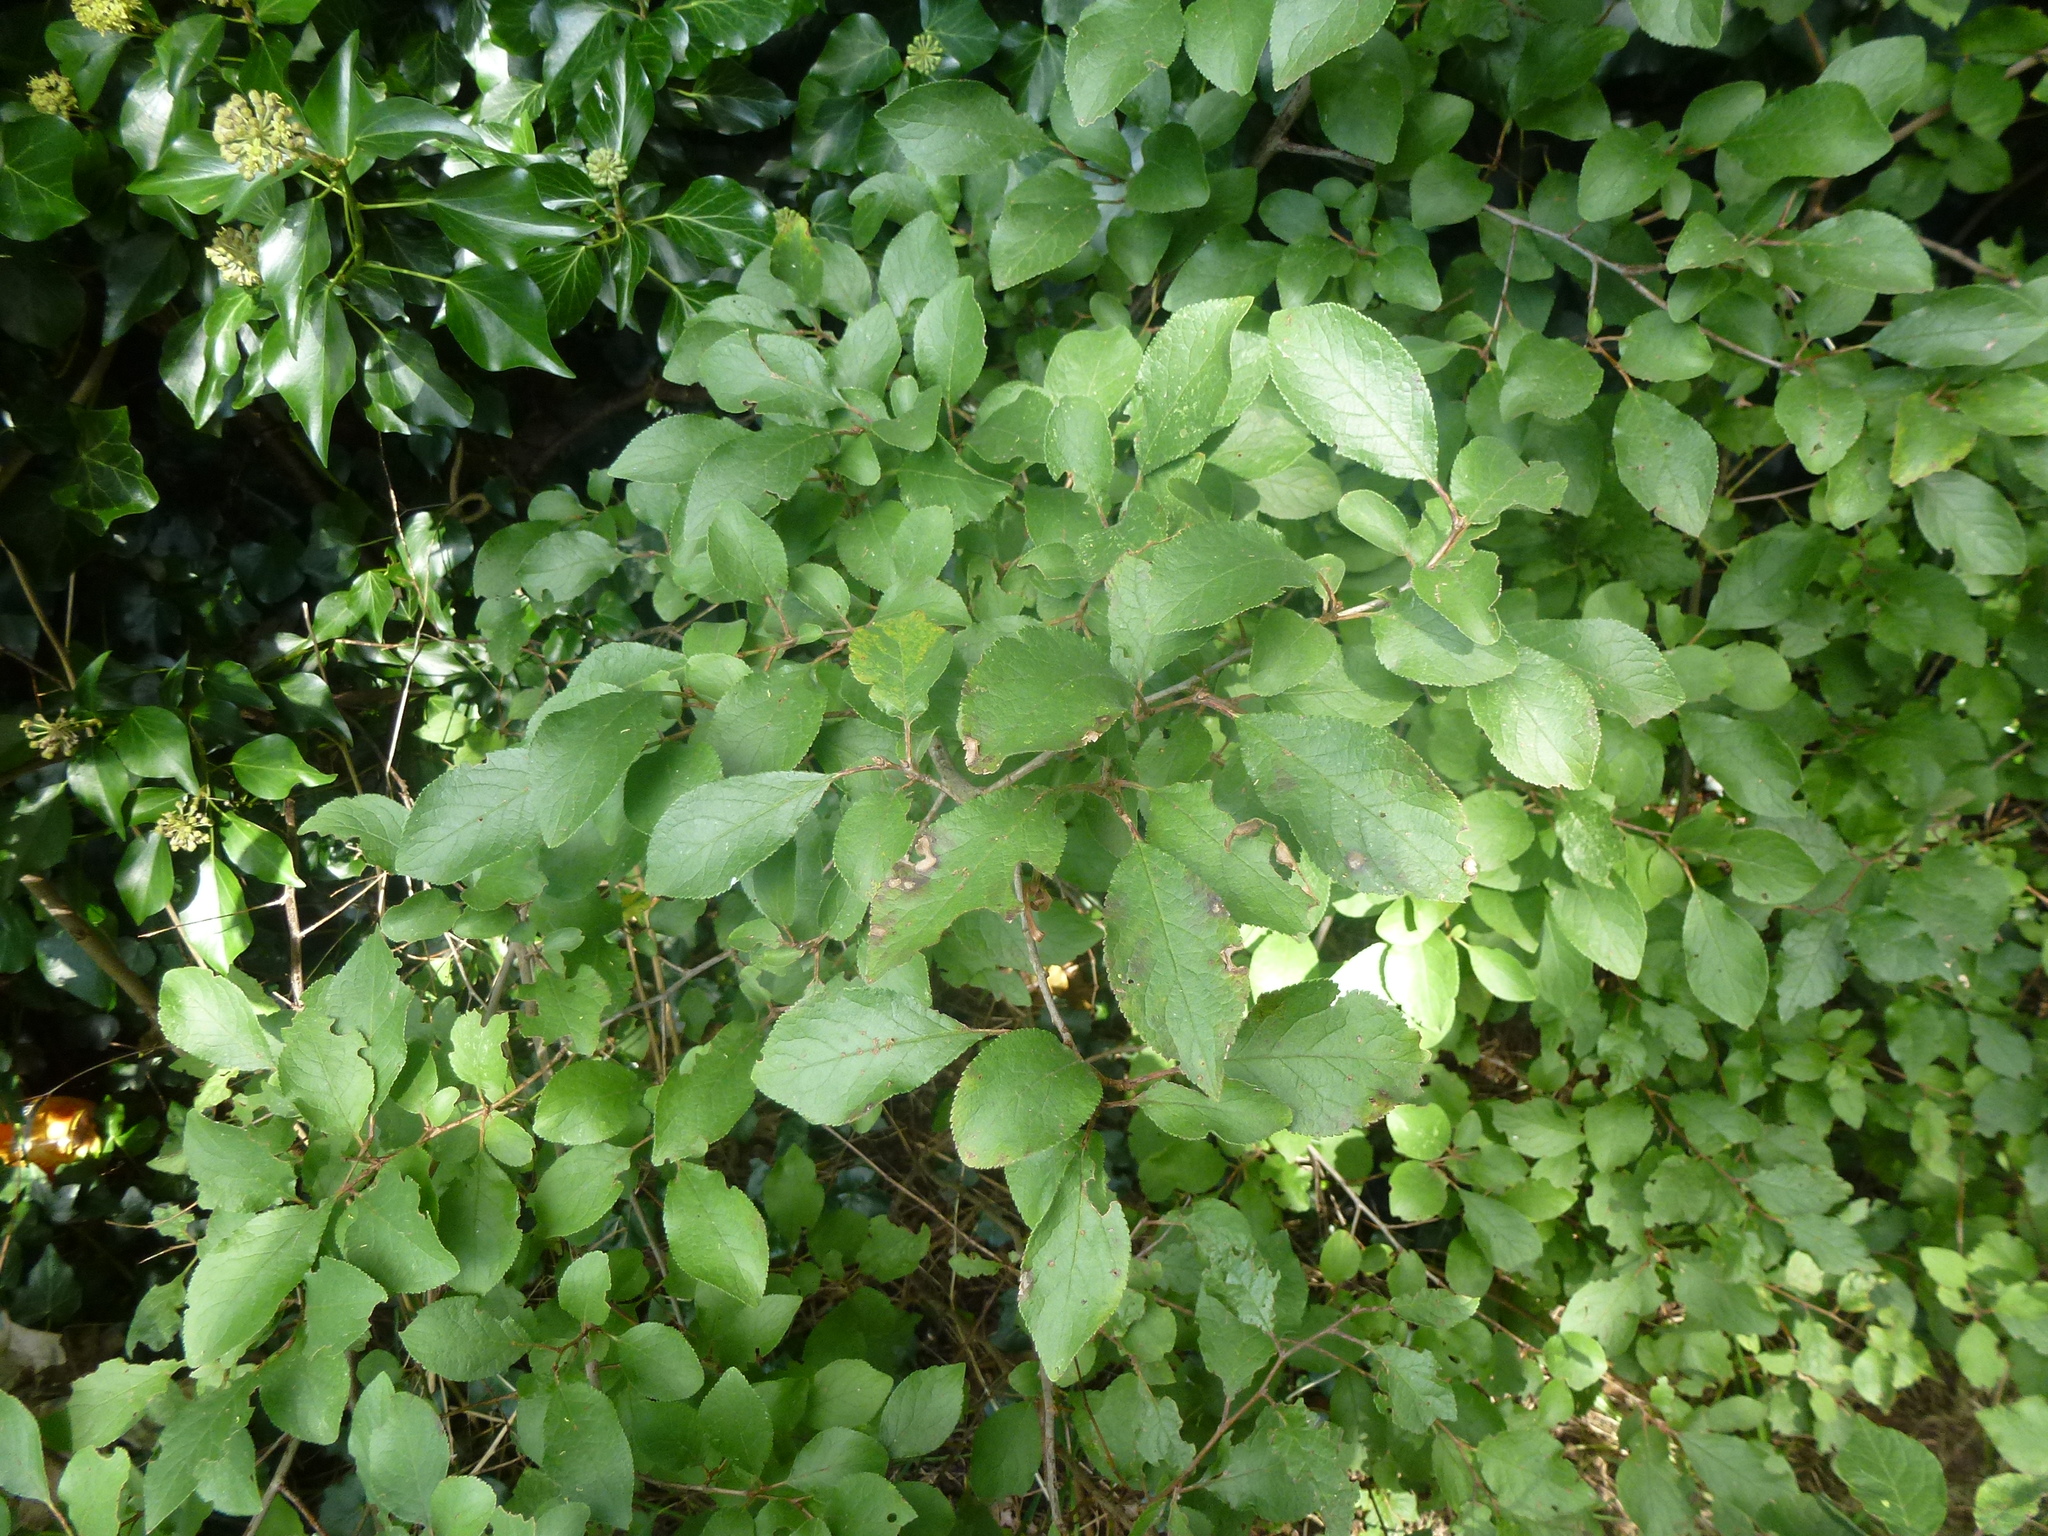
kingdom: Plantae
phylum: Tracheophyta
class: Magnoliopsida
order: Rosales
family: Rosaceae
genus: Prunus
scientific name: Prunus spinosa
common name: Blackthorn
